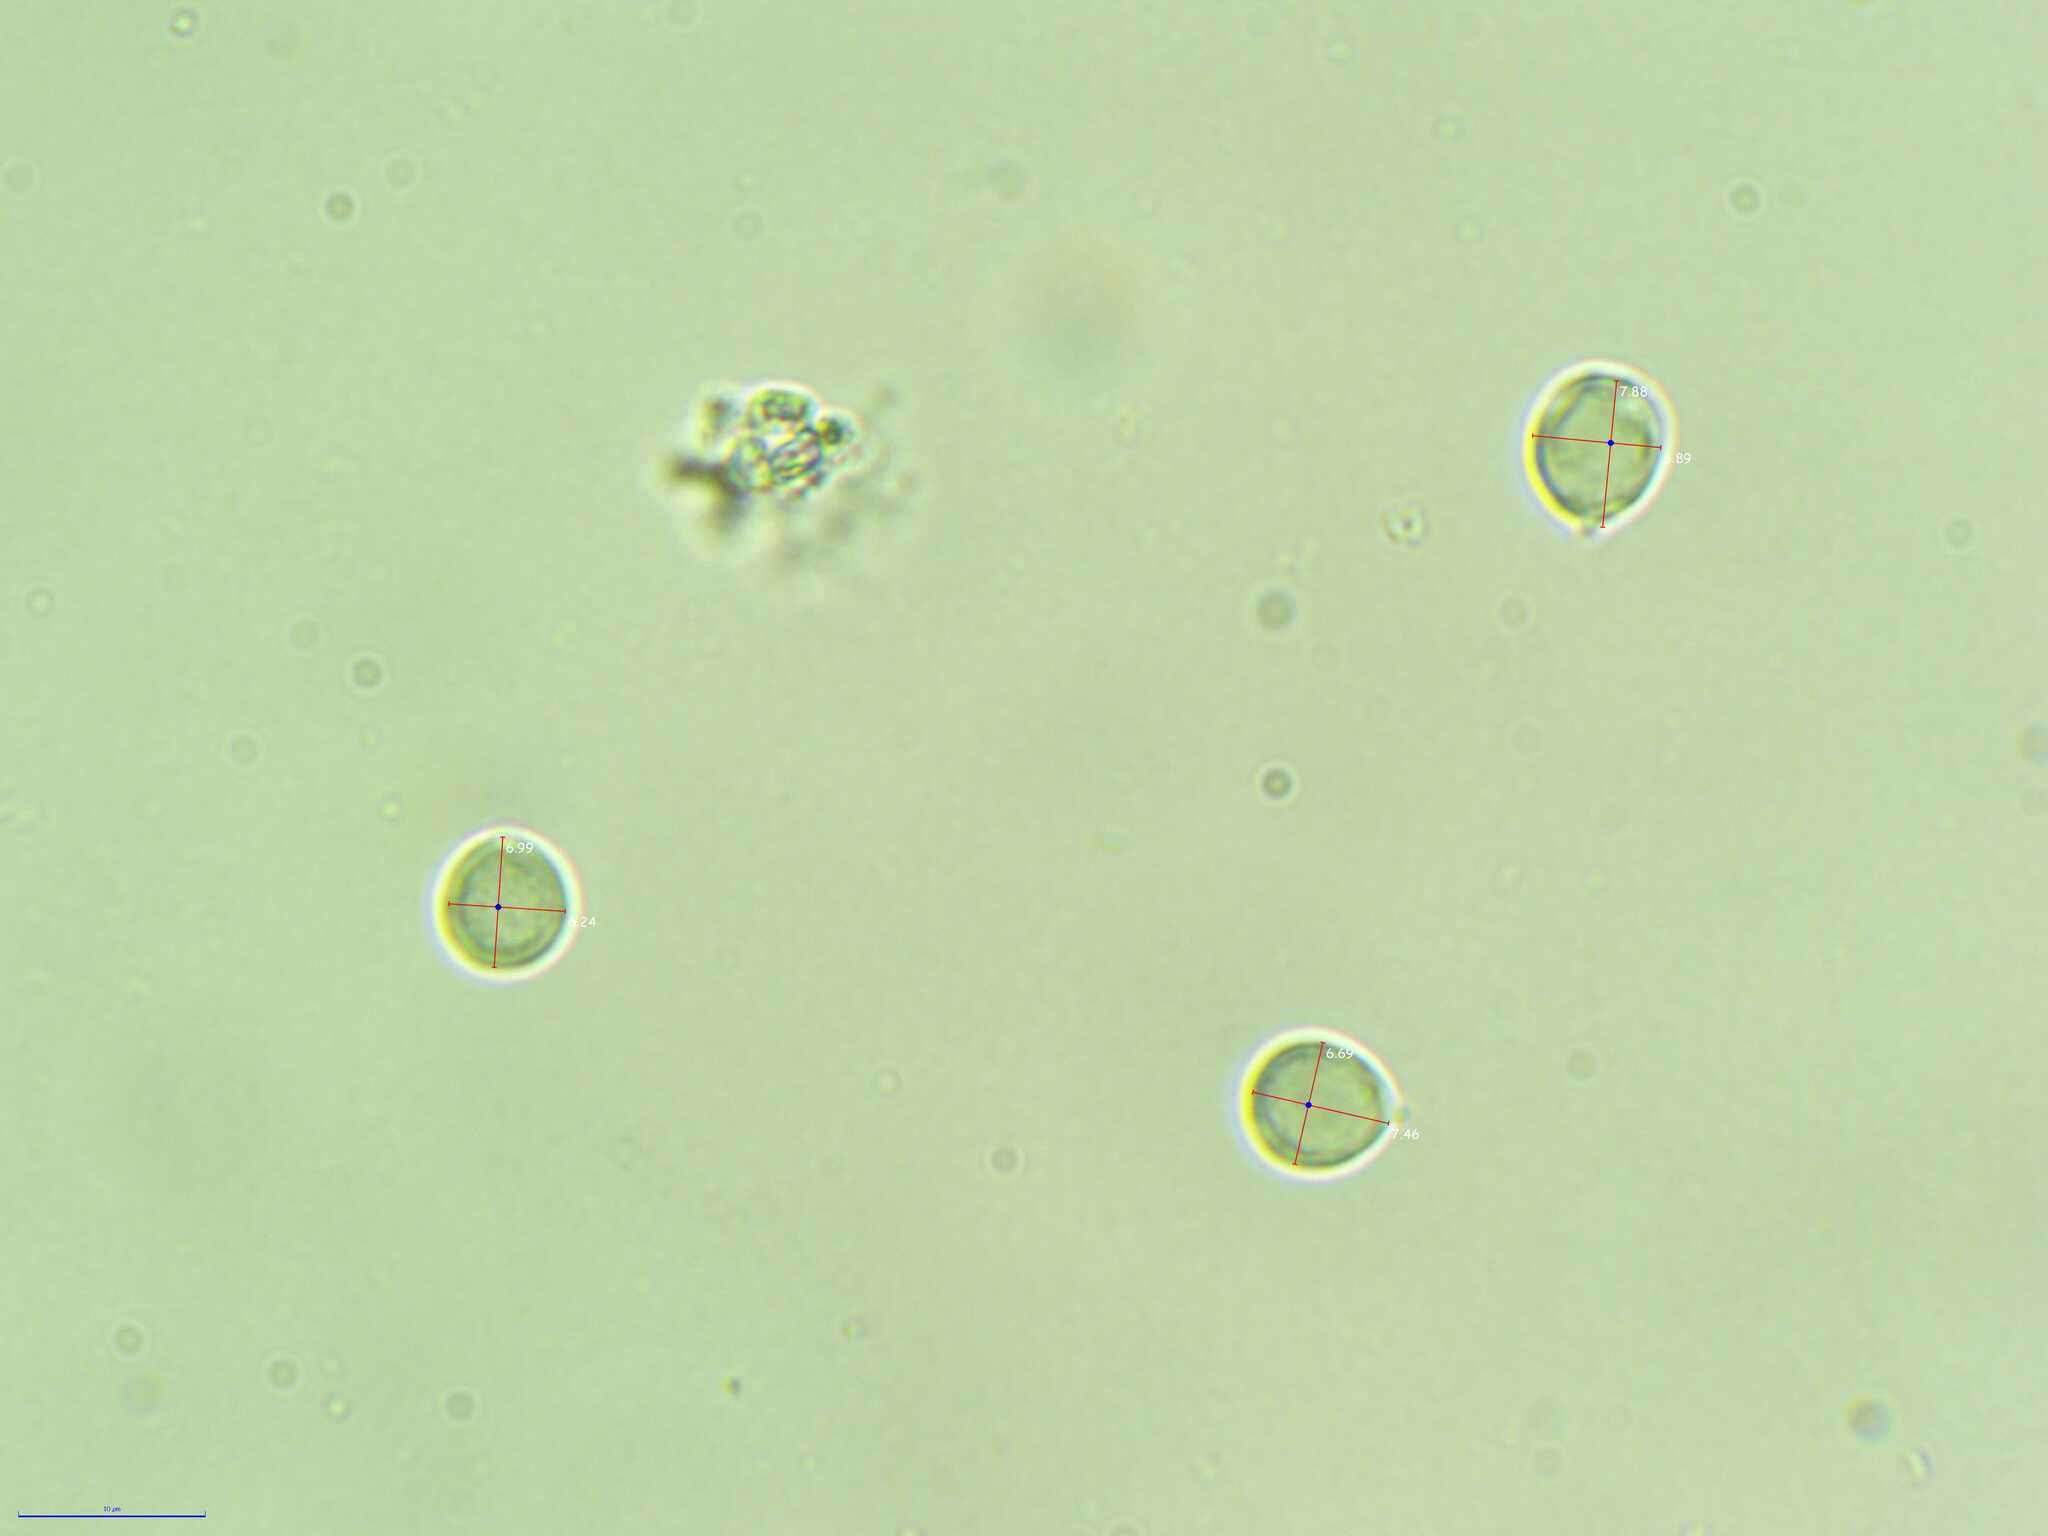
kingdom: Fungi
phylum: Basidiomycota
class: Agaricomycetes
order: Cantharellales
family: Hydnaceae
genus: Clavulina
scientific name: Clavulina rugosa
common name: Wrinkled club
